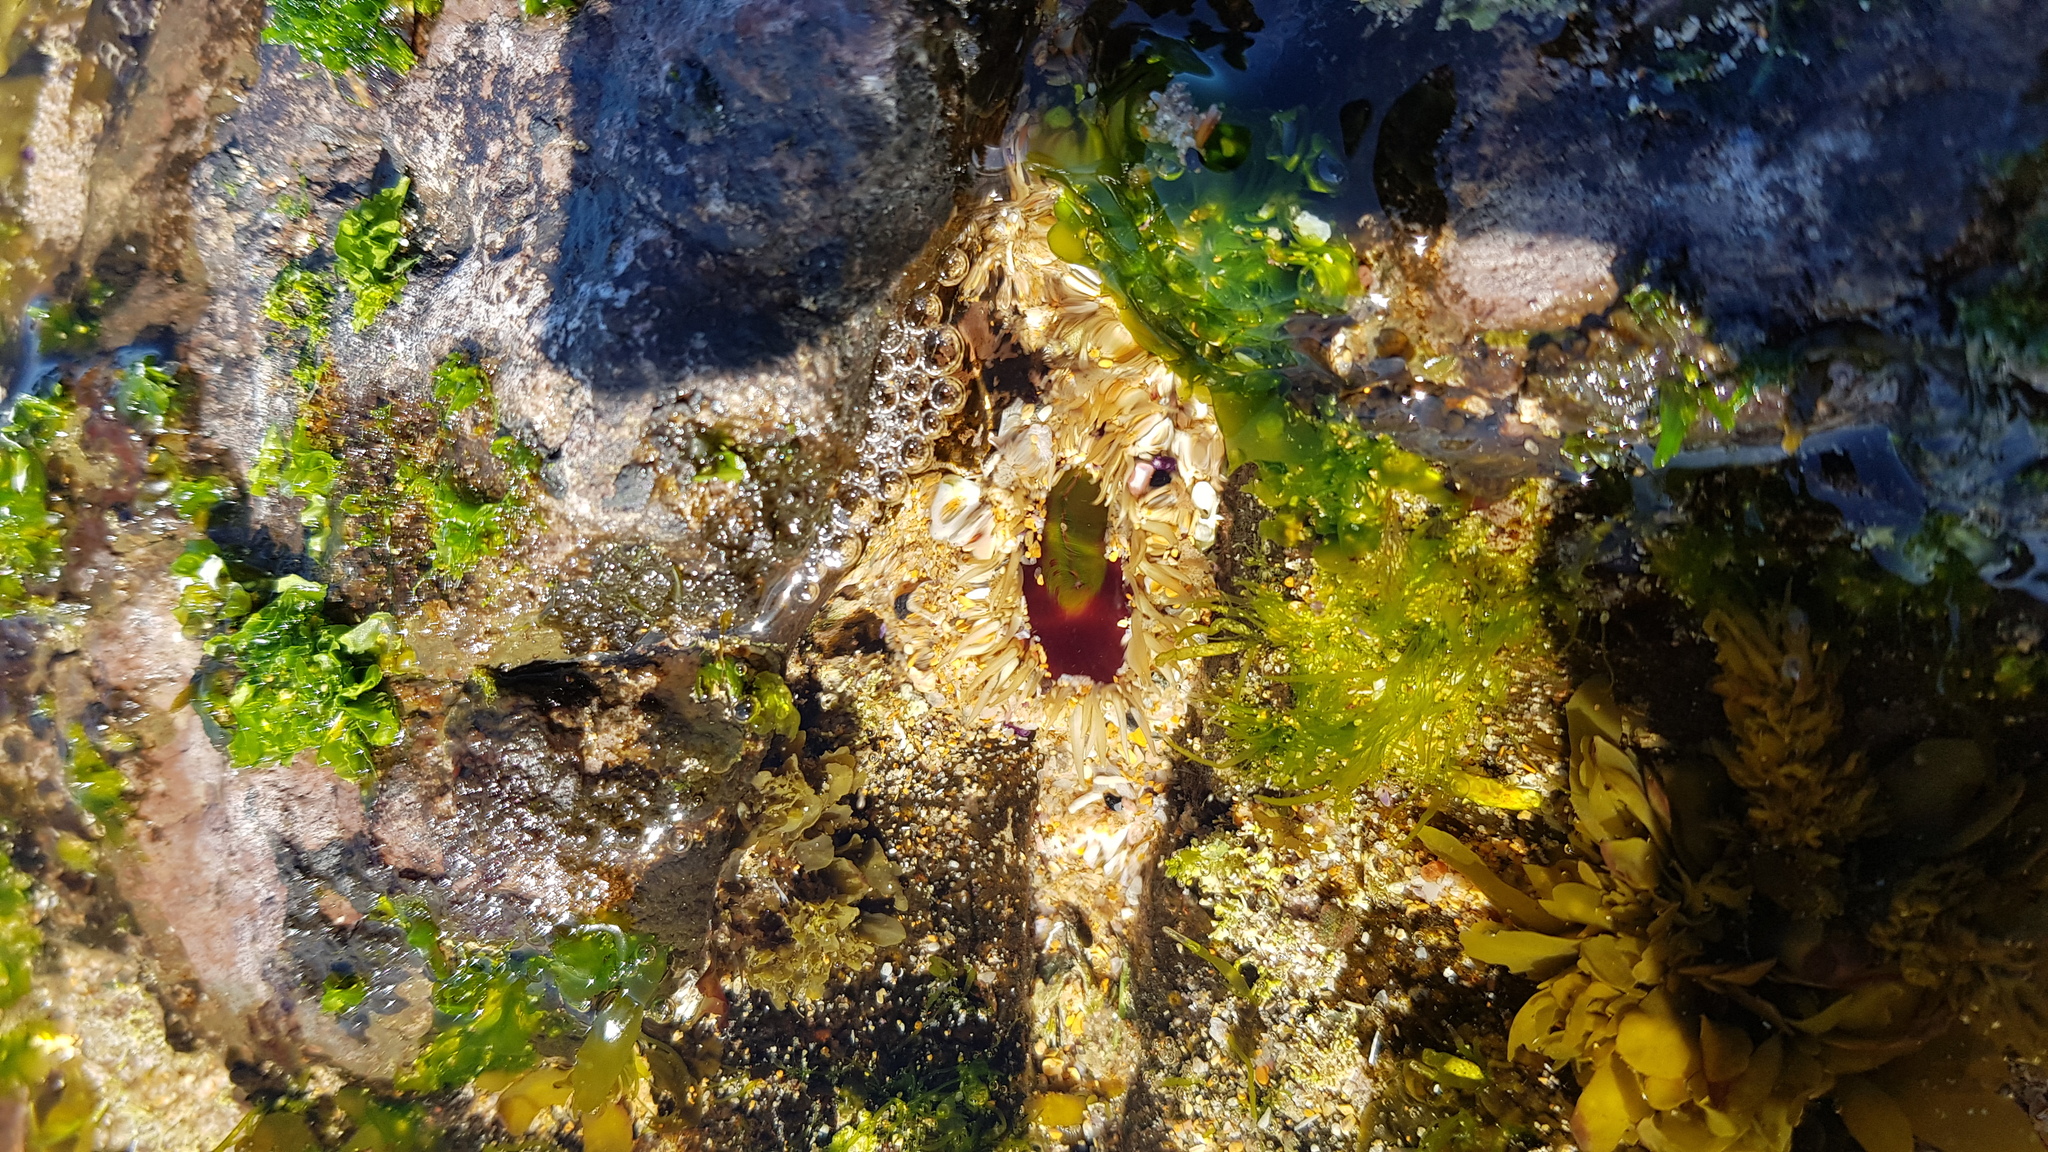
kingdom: Animalia
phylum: Cnidaria
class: Anthozoa
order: Actiniaria
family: Actiniidae
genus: Oulactis
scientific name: Oulactis muscosa
